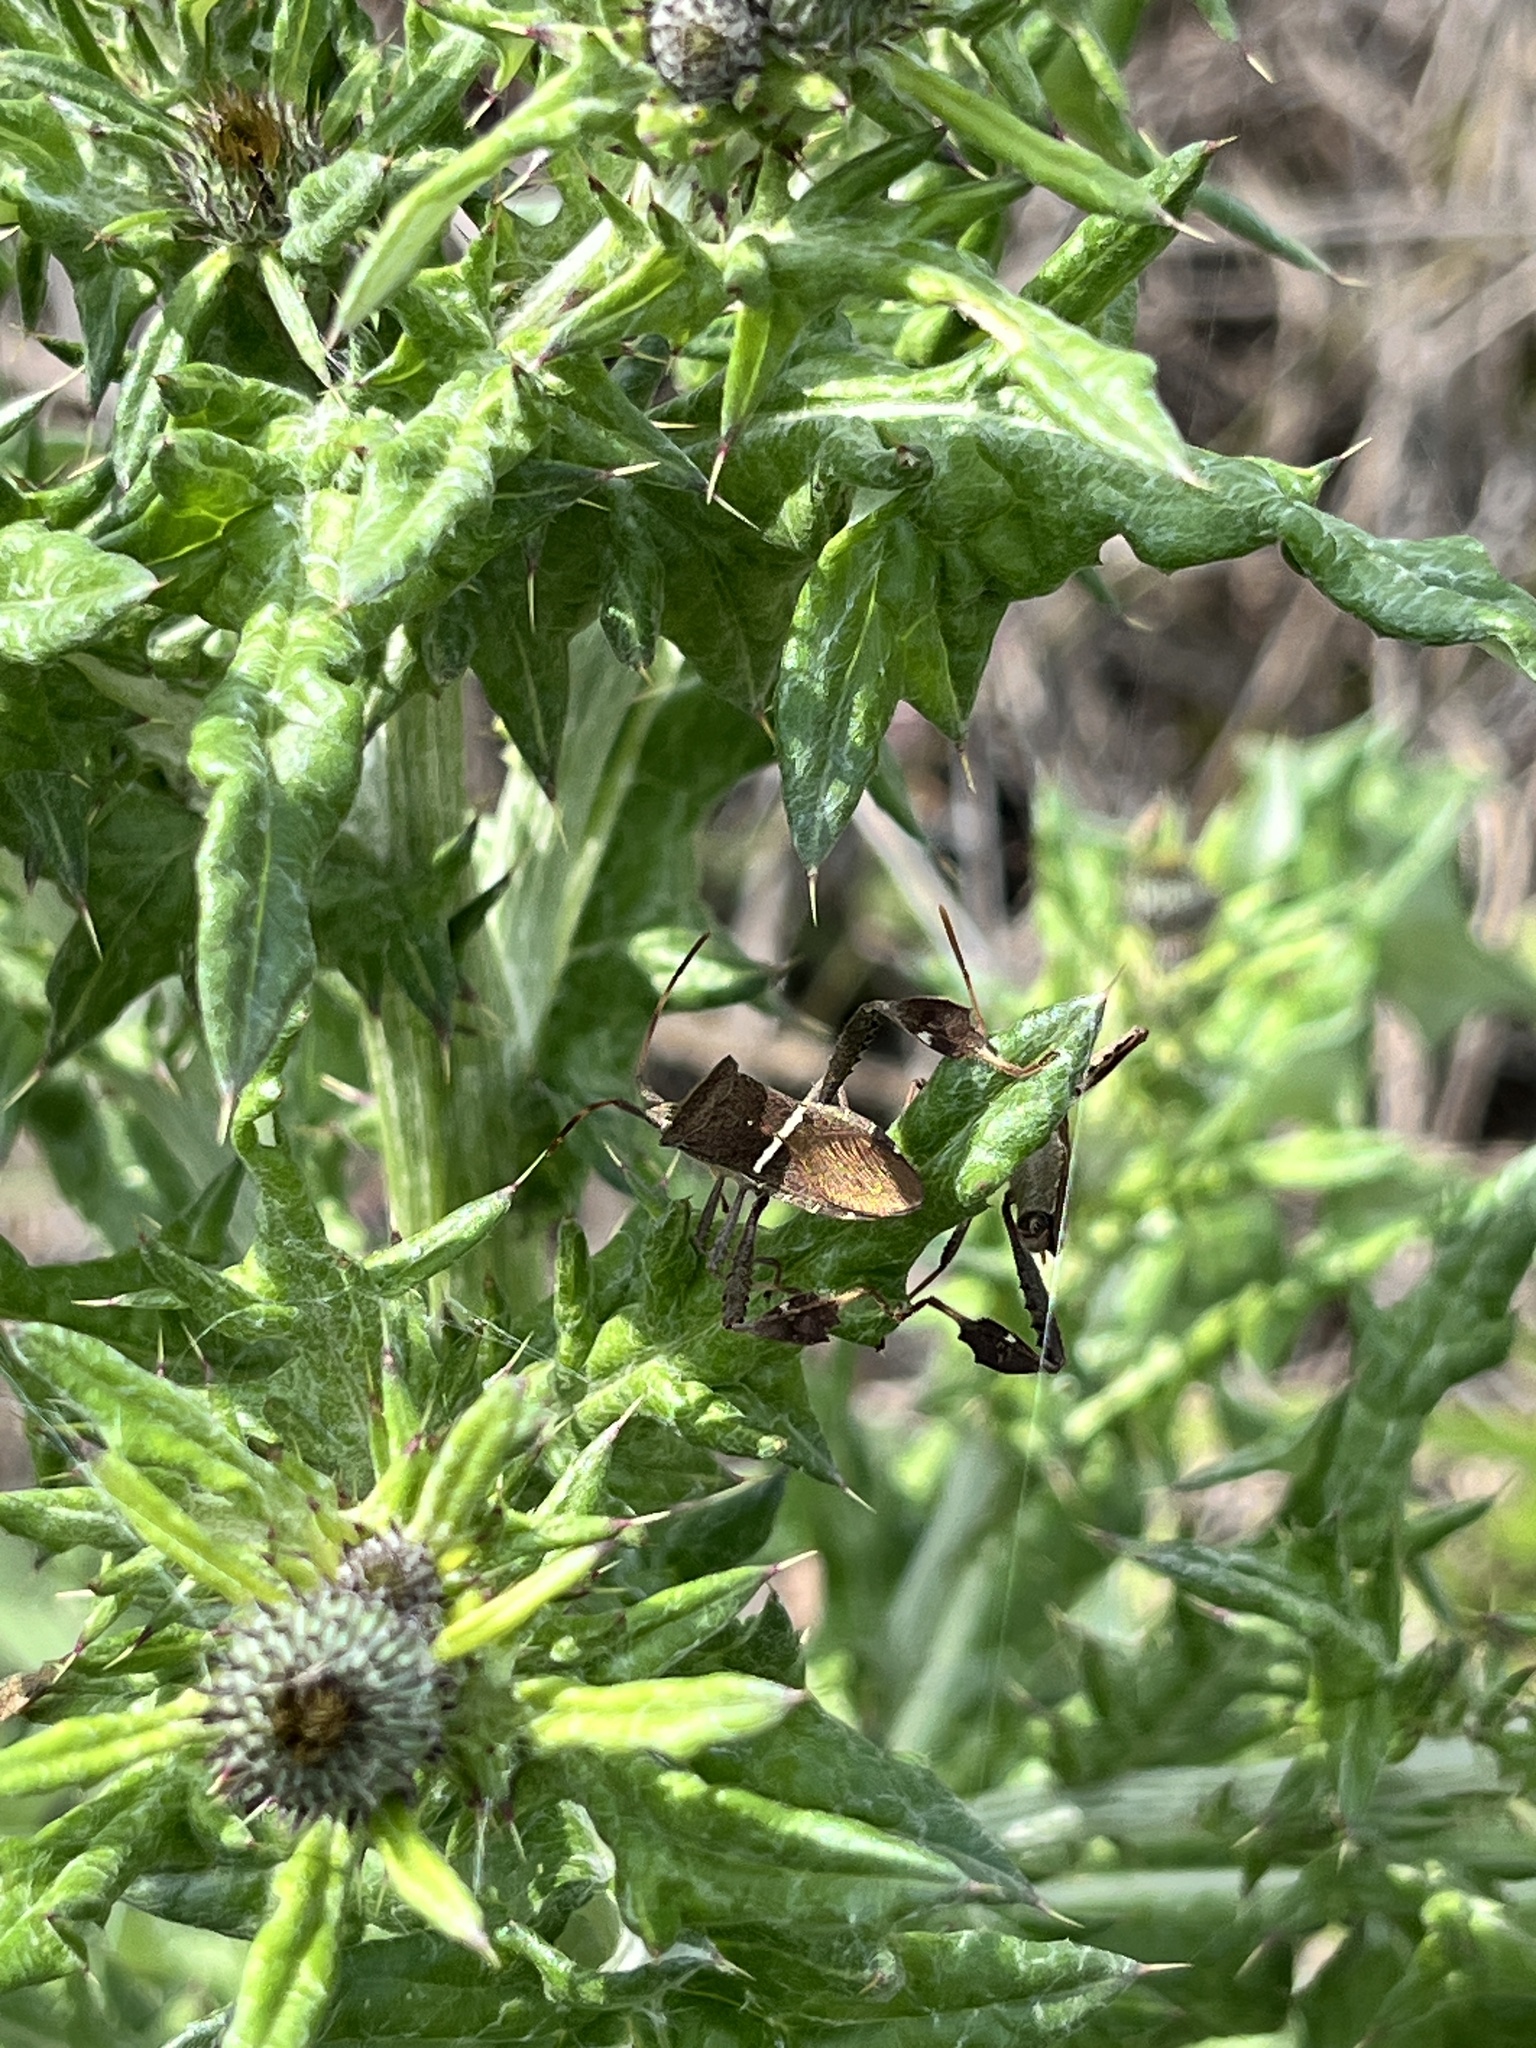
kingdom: Animalia
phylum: Arthropoda
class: Insecta
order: Hemiptera
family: Coreidae
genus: Leptoglossus
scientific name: Leptoglossus phyllopus
